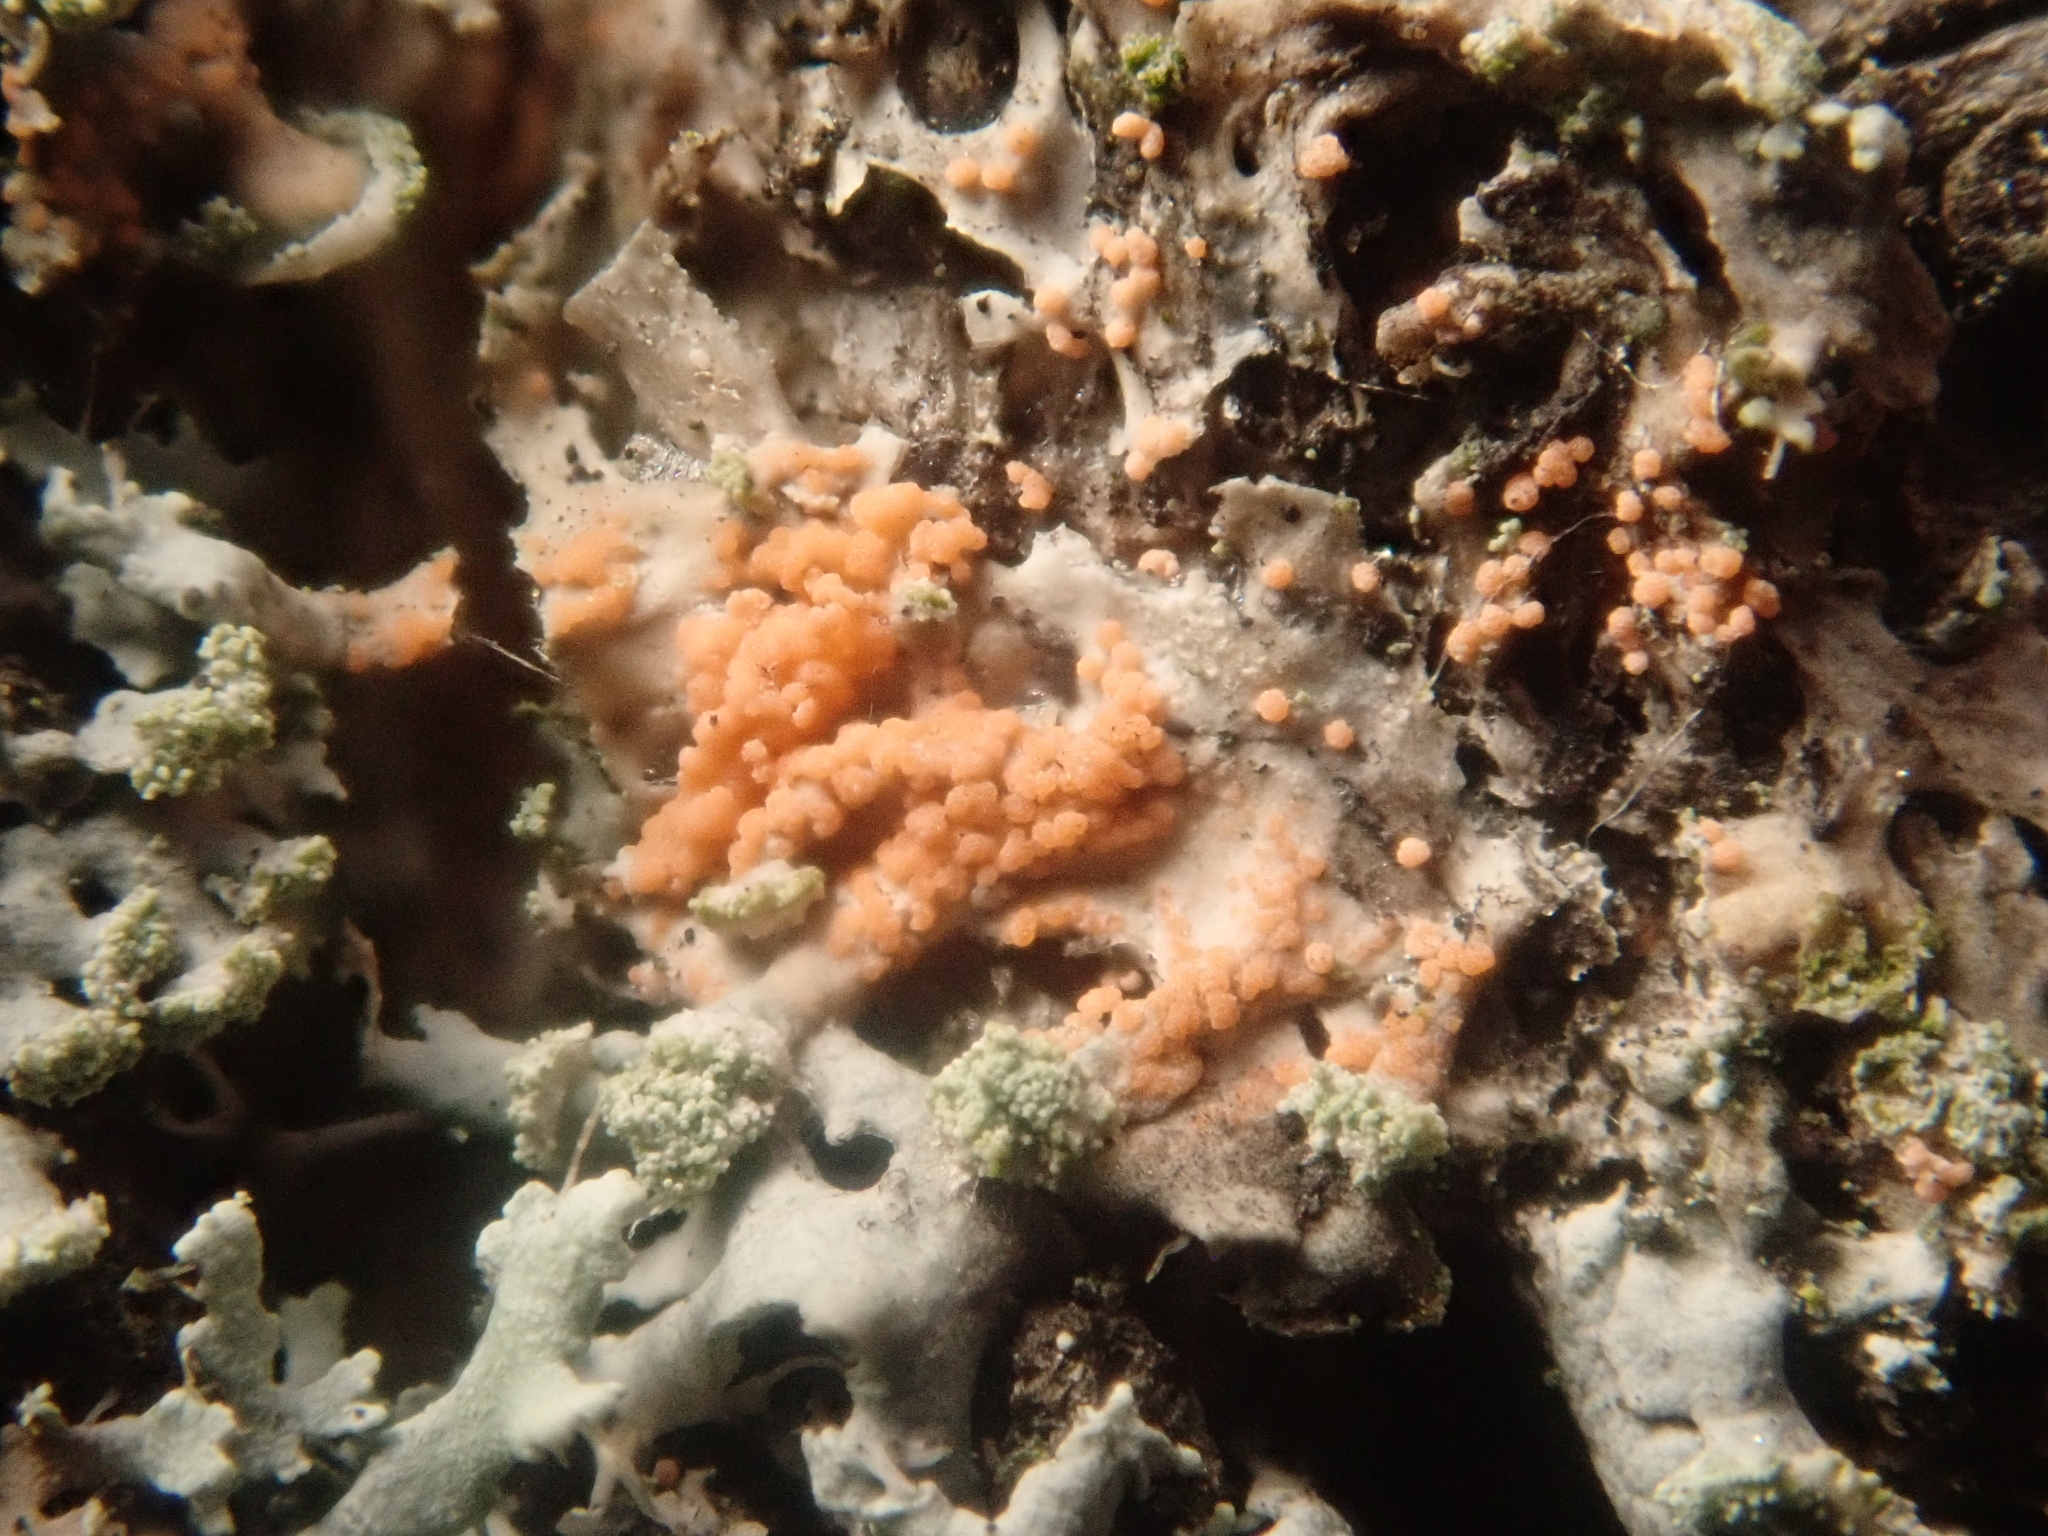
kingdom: Fungi
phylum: Basidiomycota
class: Agaricomycetes
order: Corticiales
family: Corticiaceae
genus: Erythricium
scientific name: Erythricium aurantiacum
